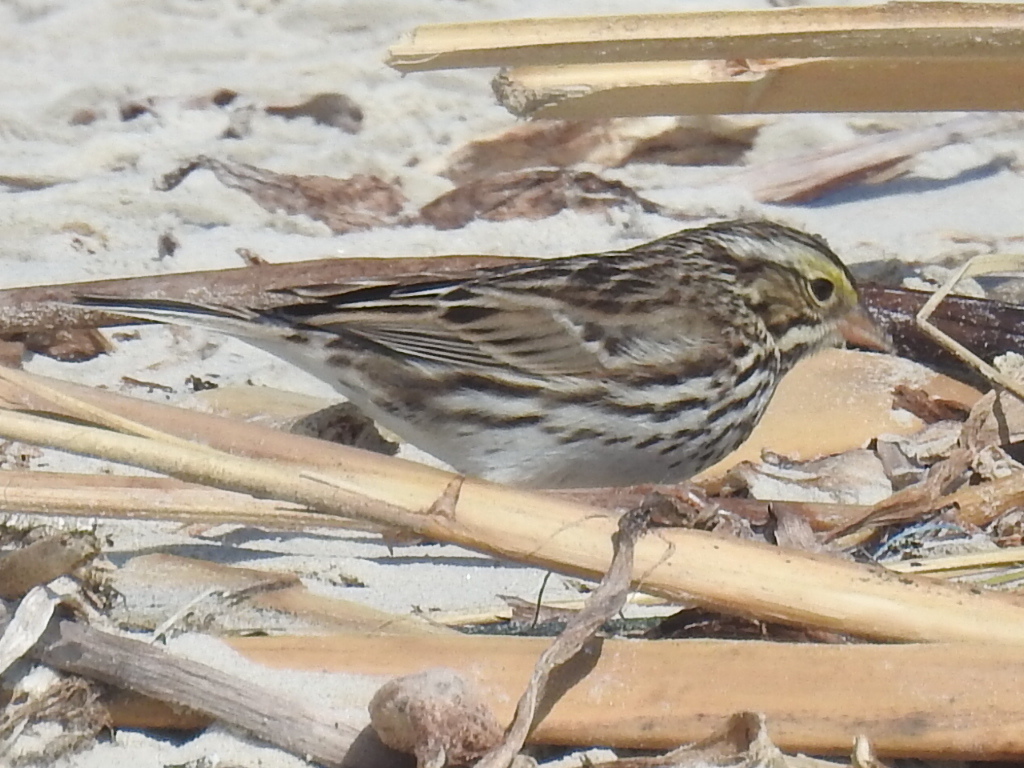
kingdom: Animalia
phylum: Chordata
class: Aves
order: Passeriformes
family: Passerellidae
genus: Passerculus
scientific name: Passerculus sandwichensis
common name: Savannah sparrow
